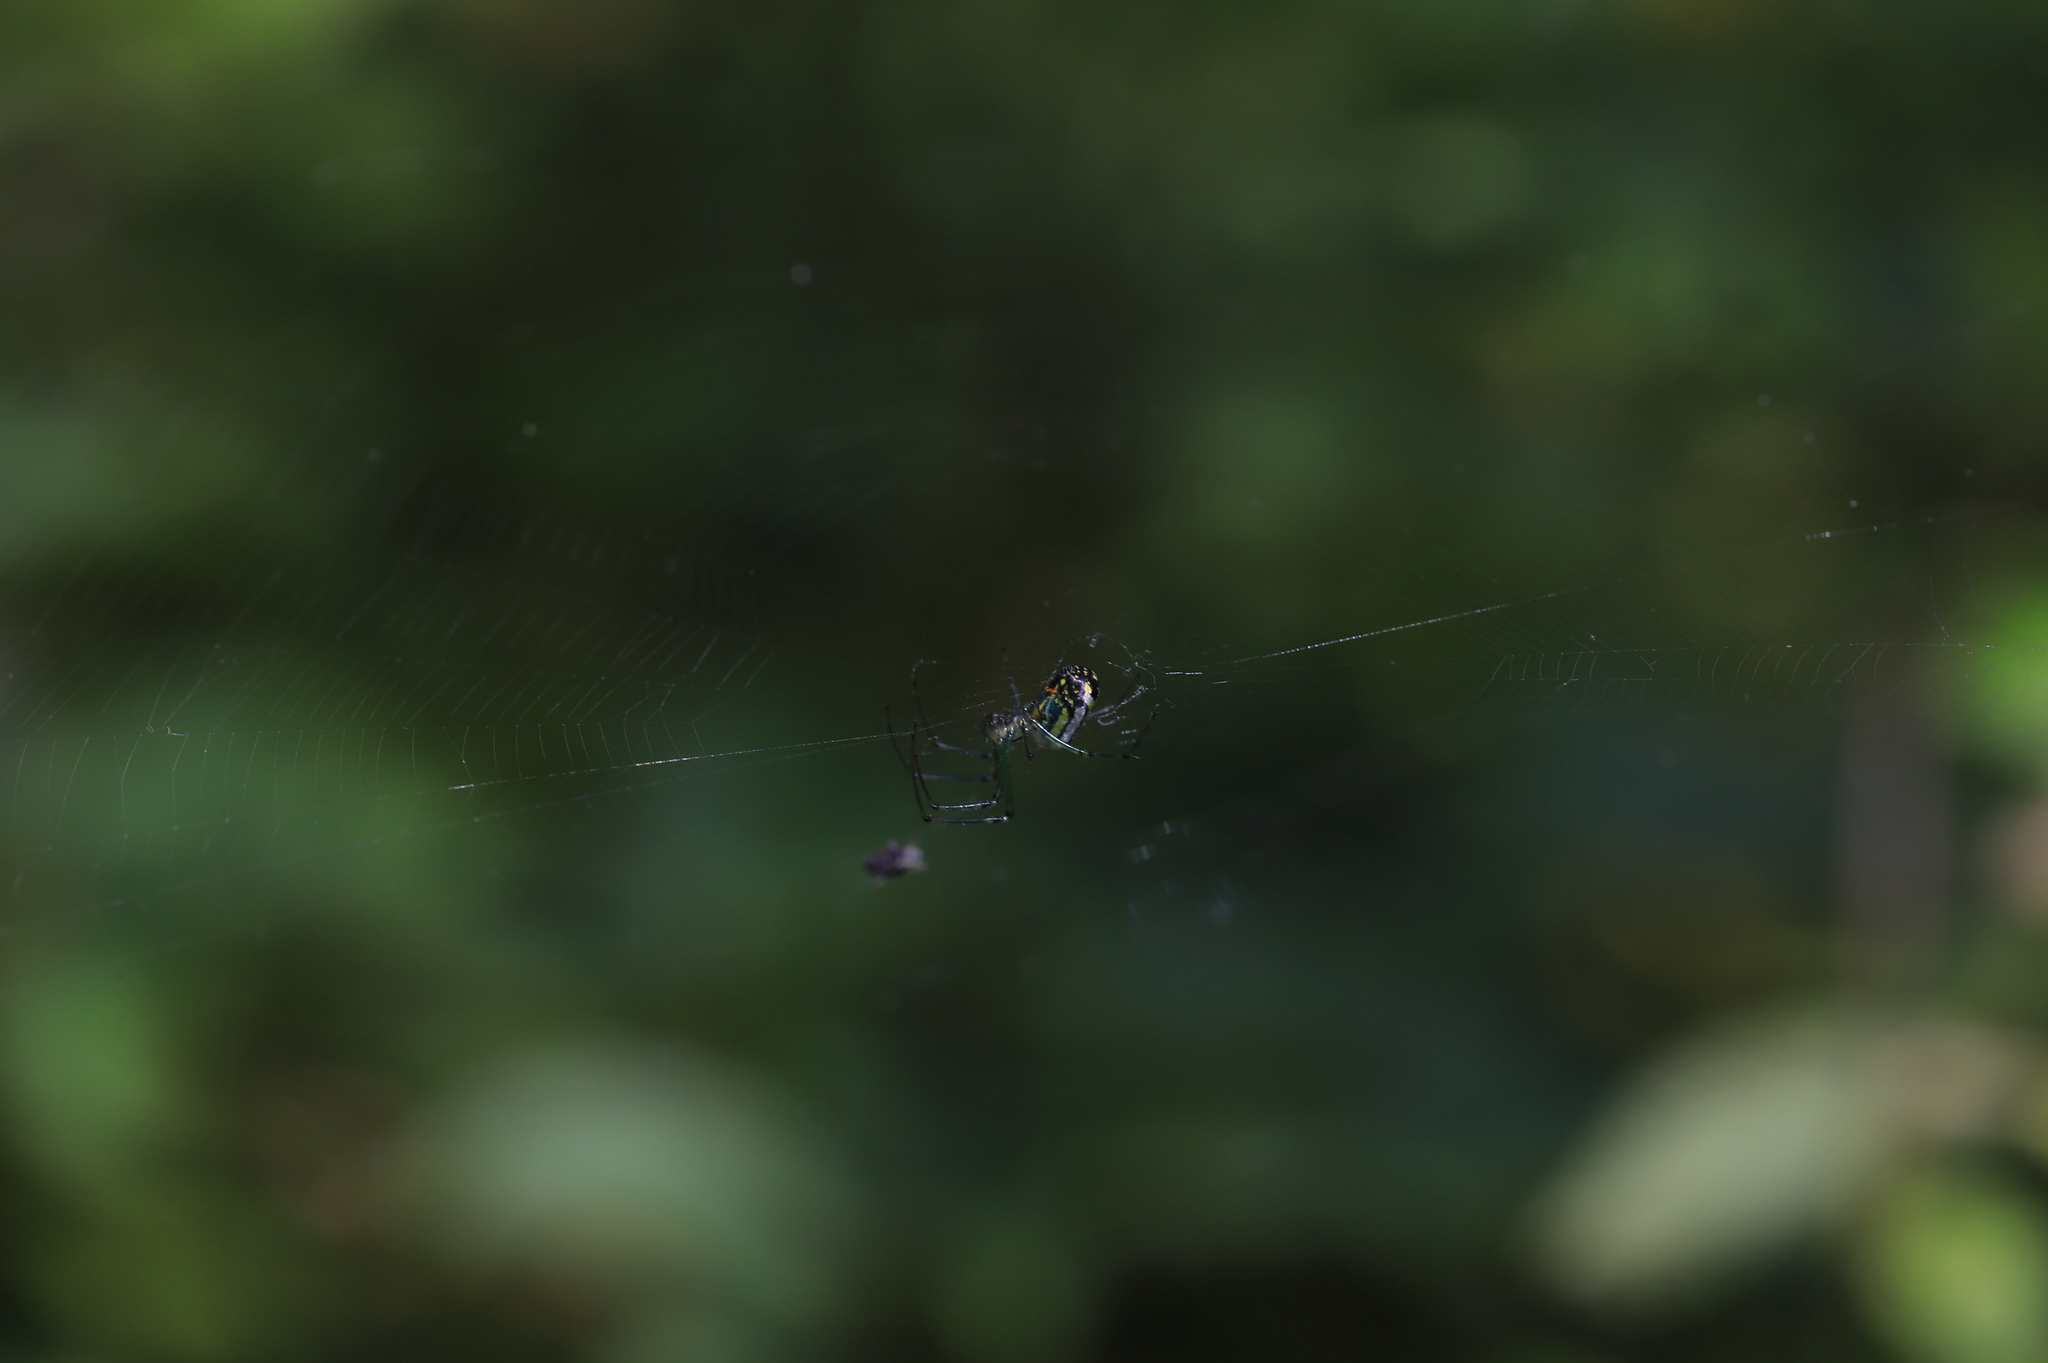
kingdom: Animalia
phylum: Arthropoda
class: Arachnida
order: Araneae
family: Tetragnathidae
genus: Leucauge
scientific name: Leucauge venusta
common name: Longjawed orb weavers
